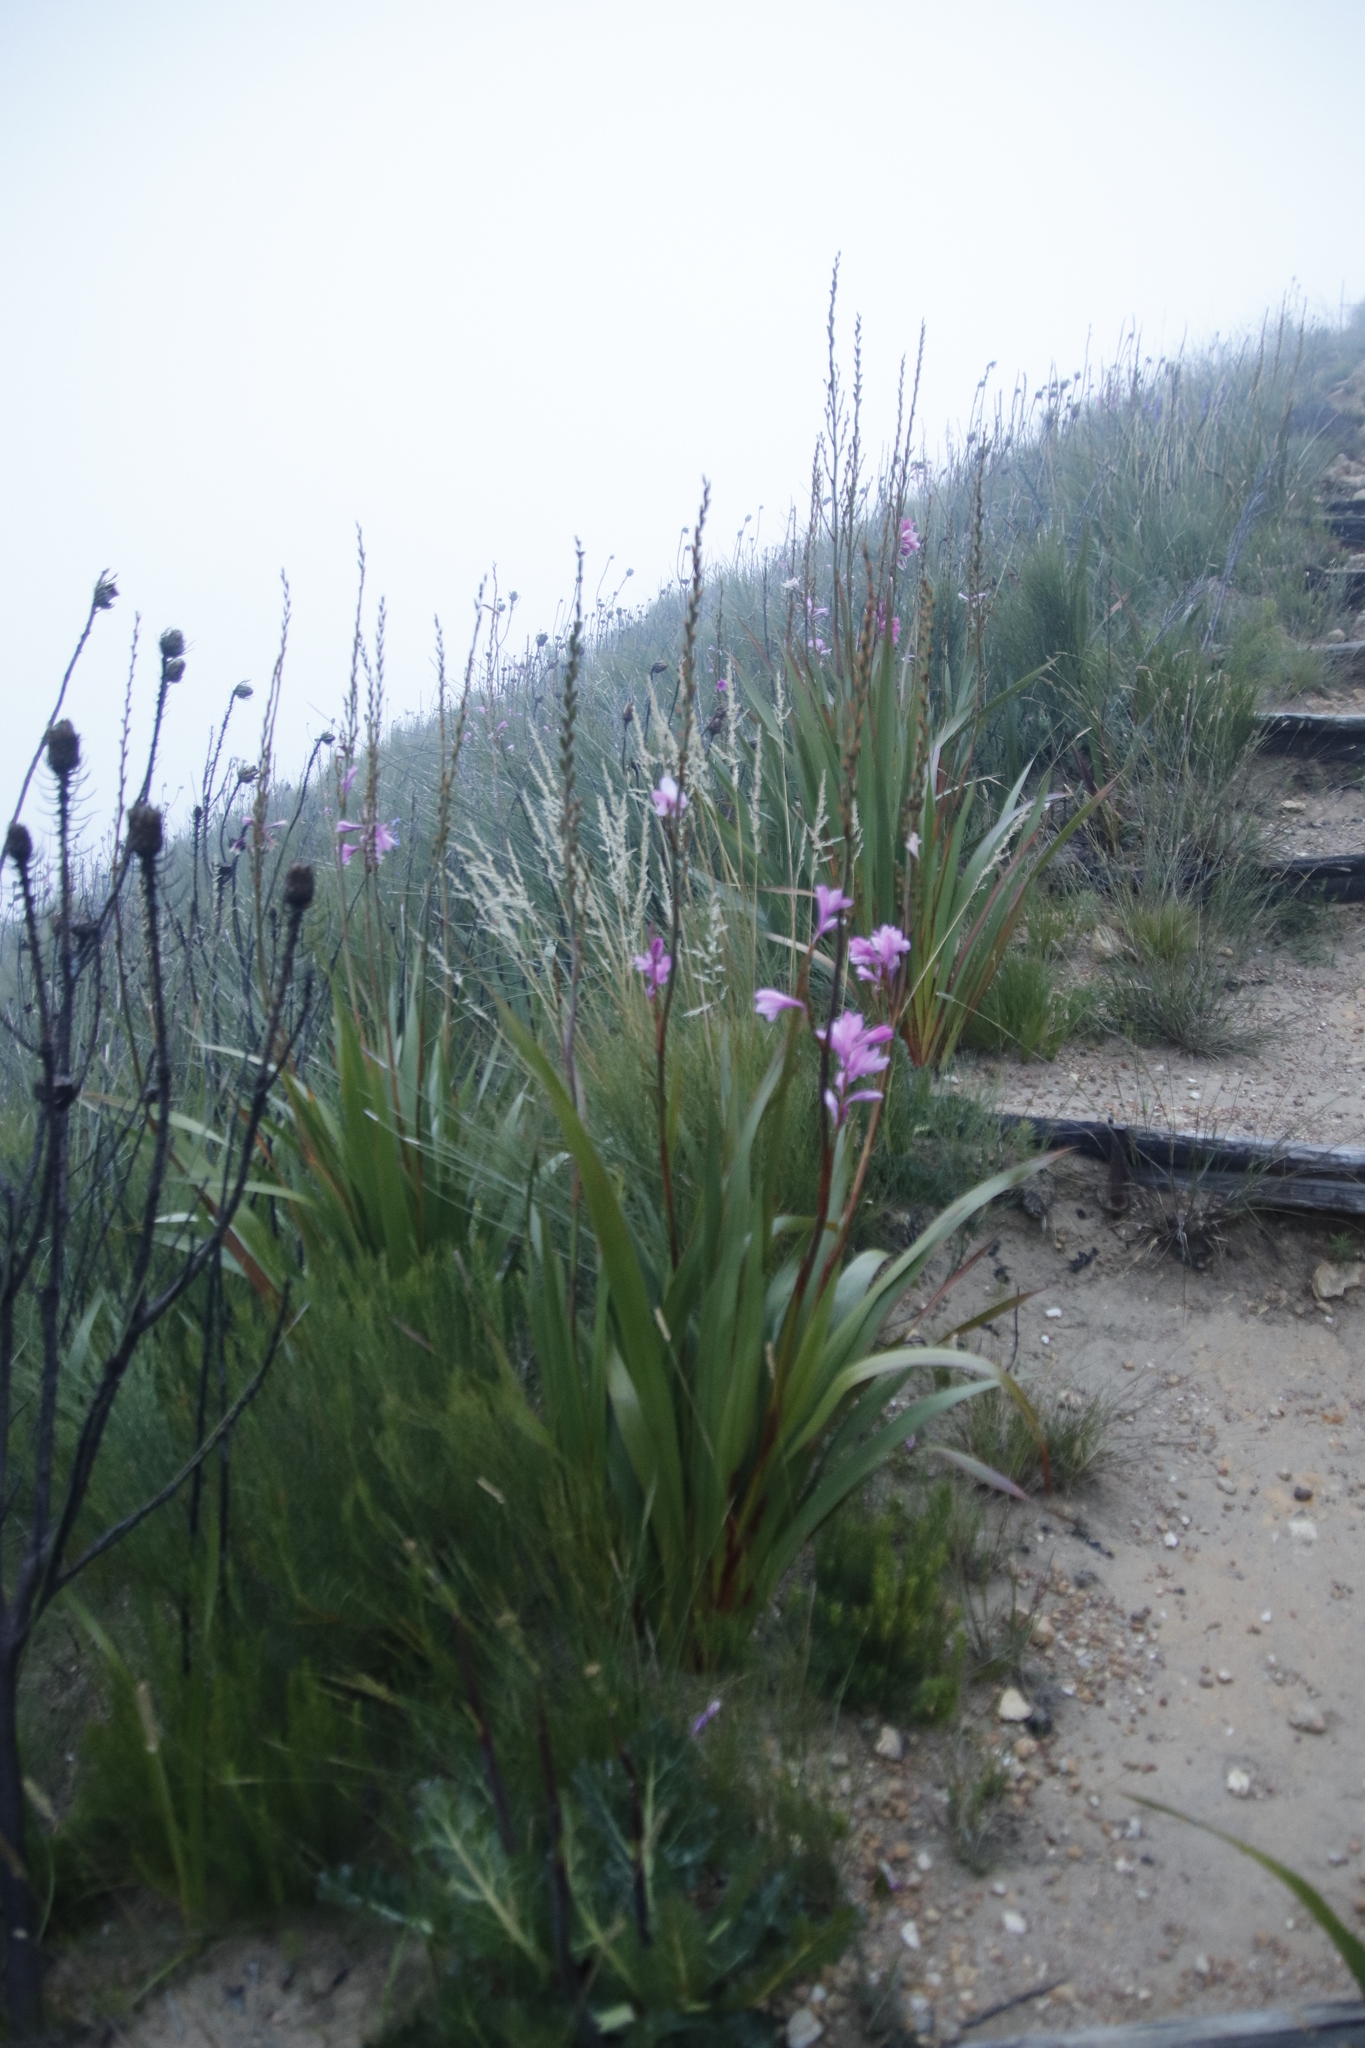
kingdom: Plantae
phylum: Tracheophyta
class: Liliopsida
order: Asparagales
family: Iridaceae
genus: Watsonia
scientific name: Watsonia borbonica
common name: Bugle-lily
